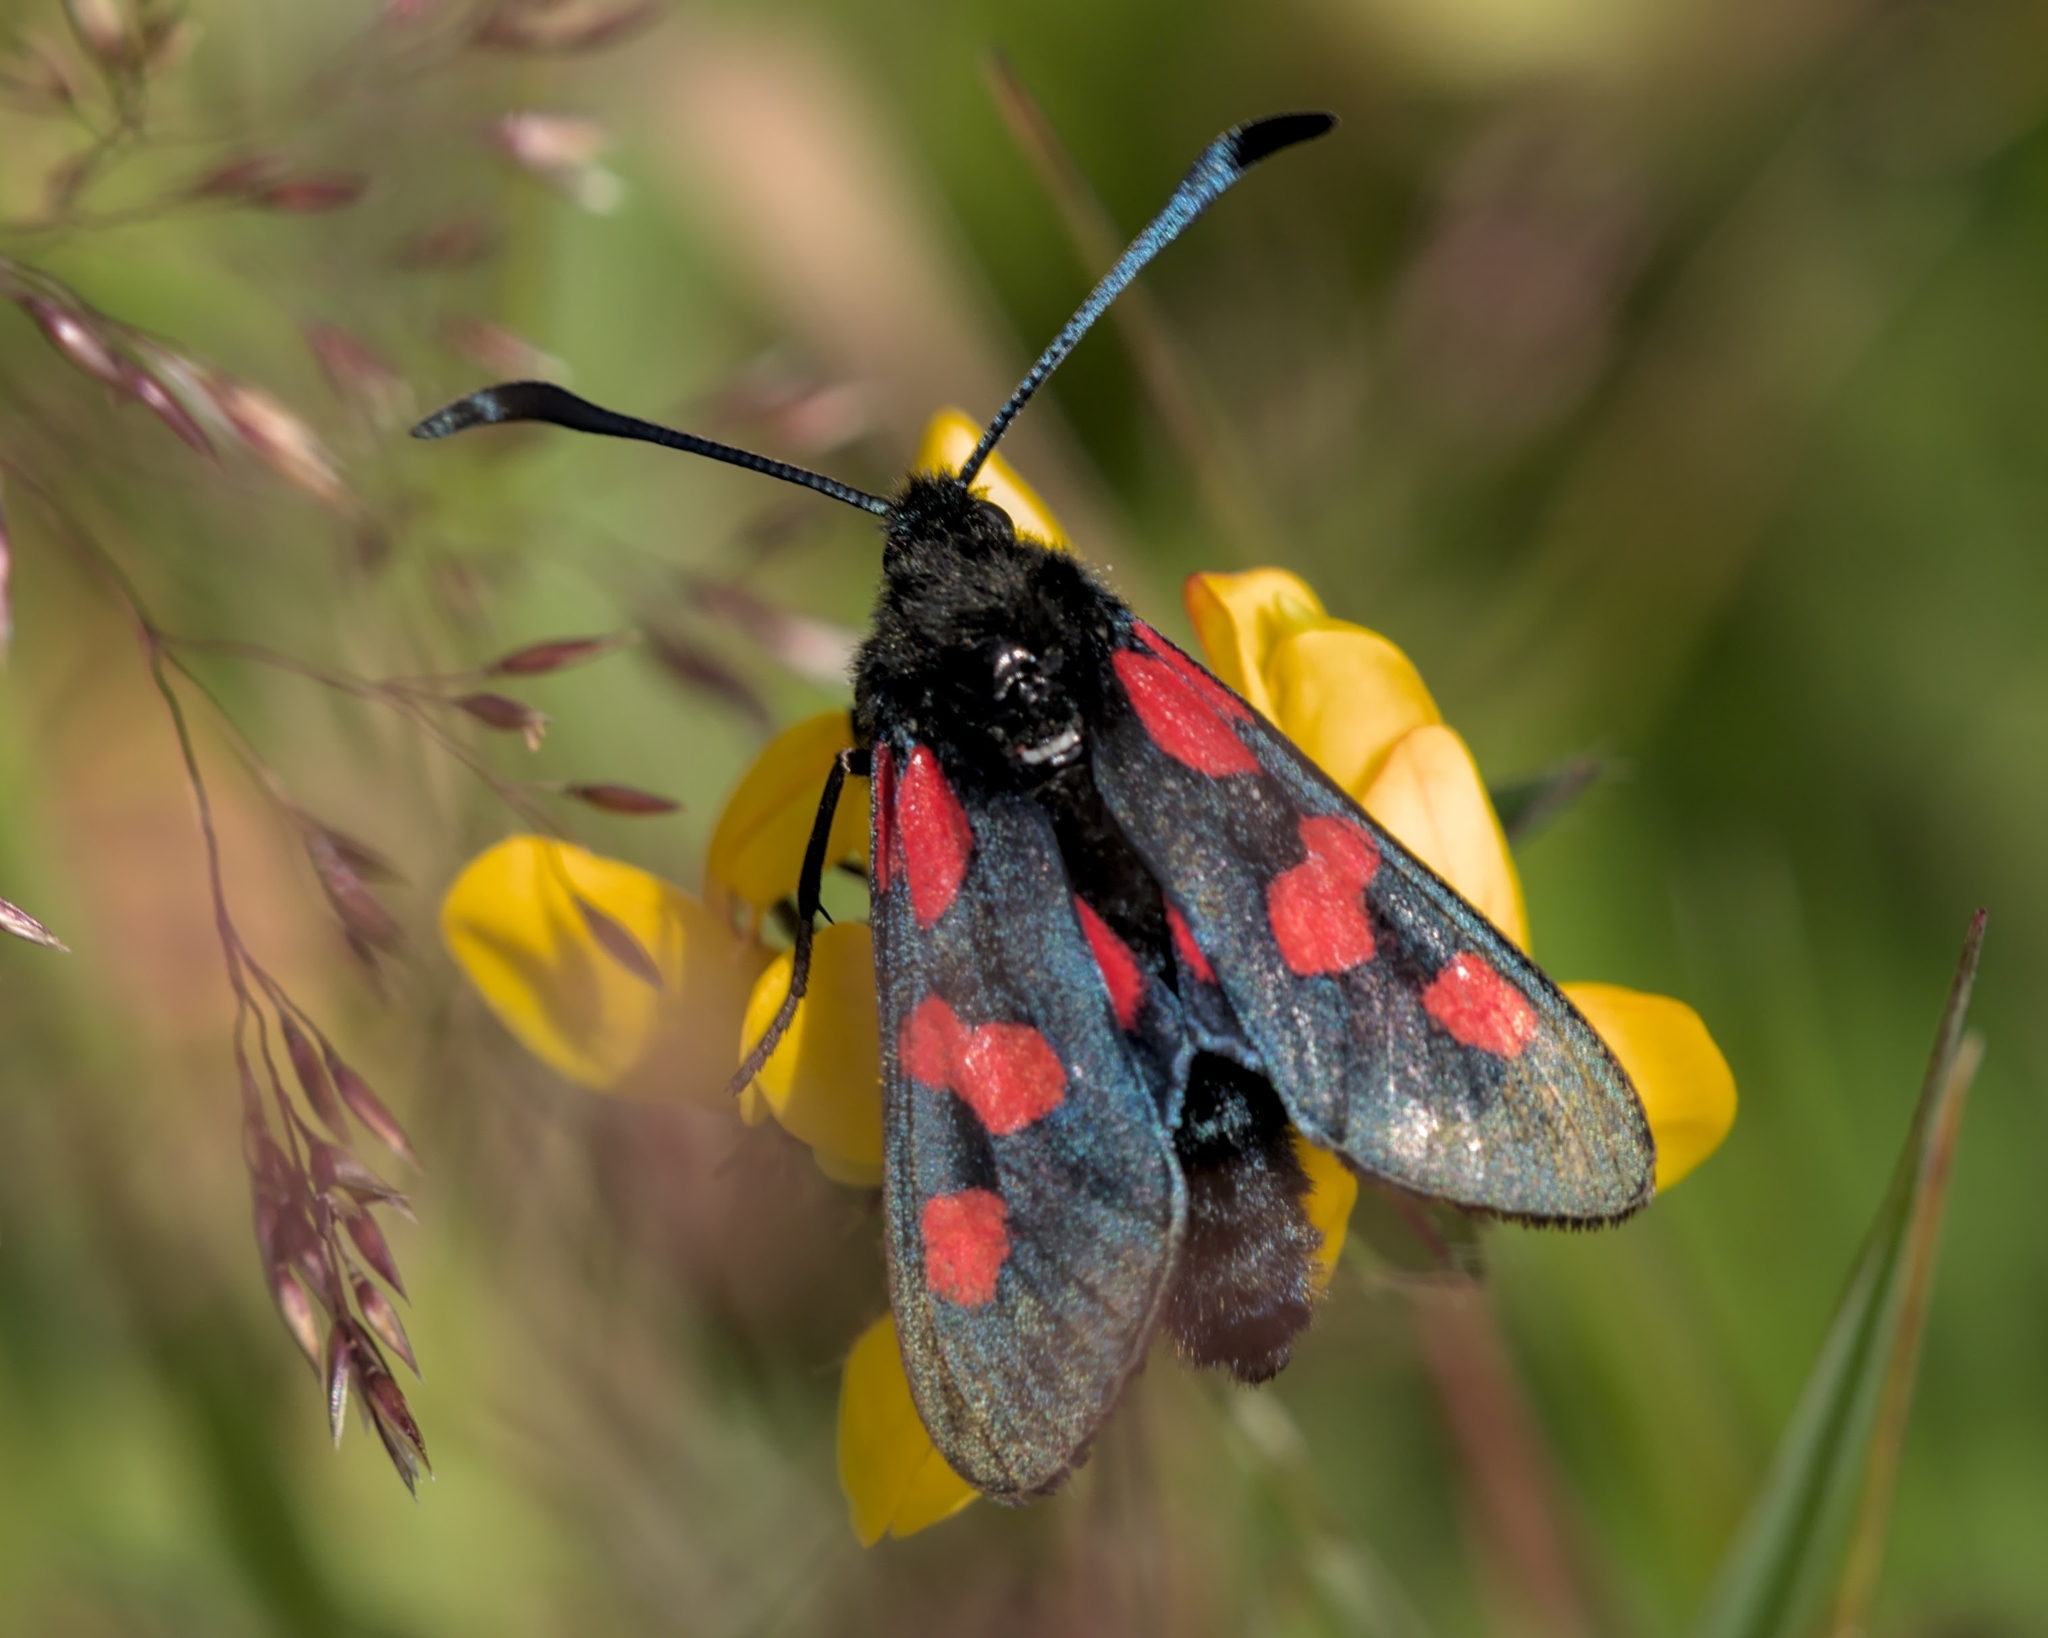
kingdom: Animalia
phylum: Arthropoda
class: Insecta
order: Lepidoptera
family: Zygaenidae
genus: Zygaena
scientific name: Zygaena lonicerae
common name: Narrow-bordered five-spot burnet
